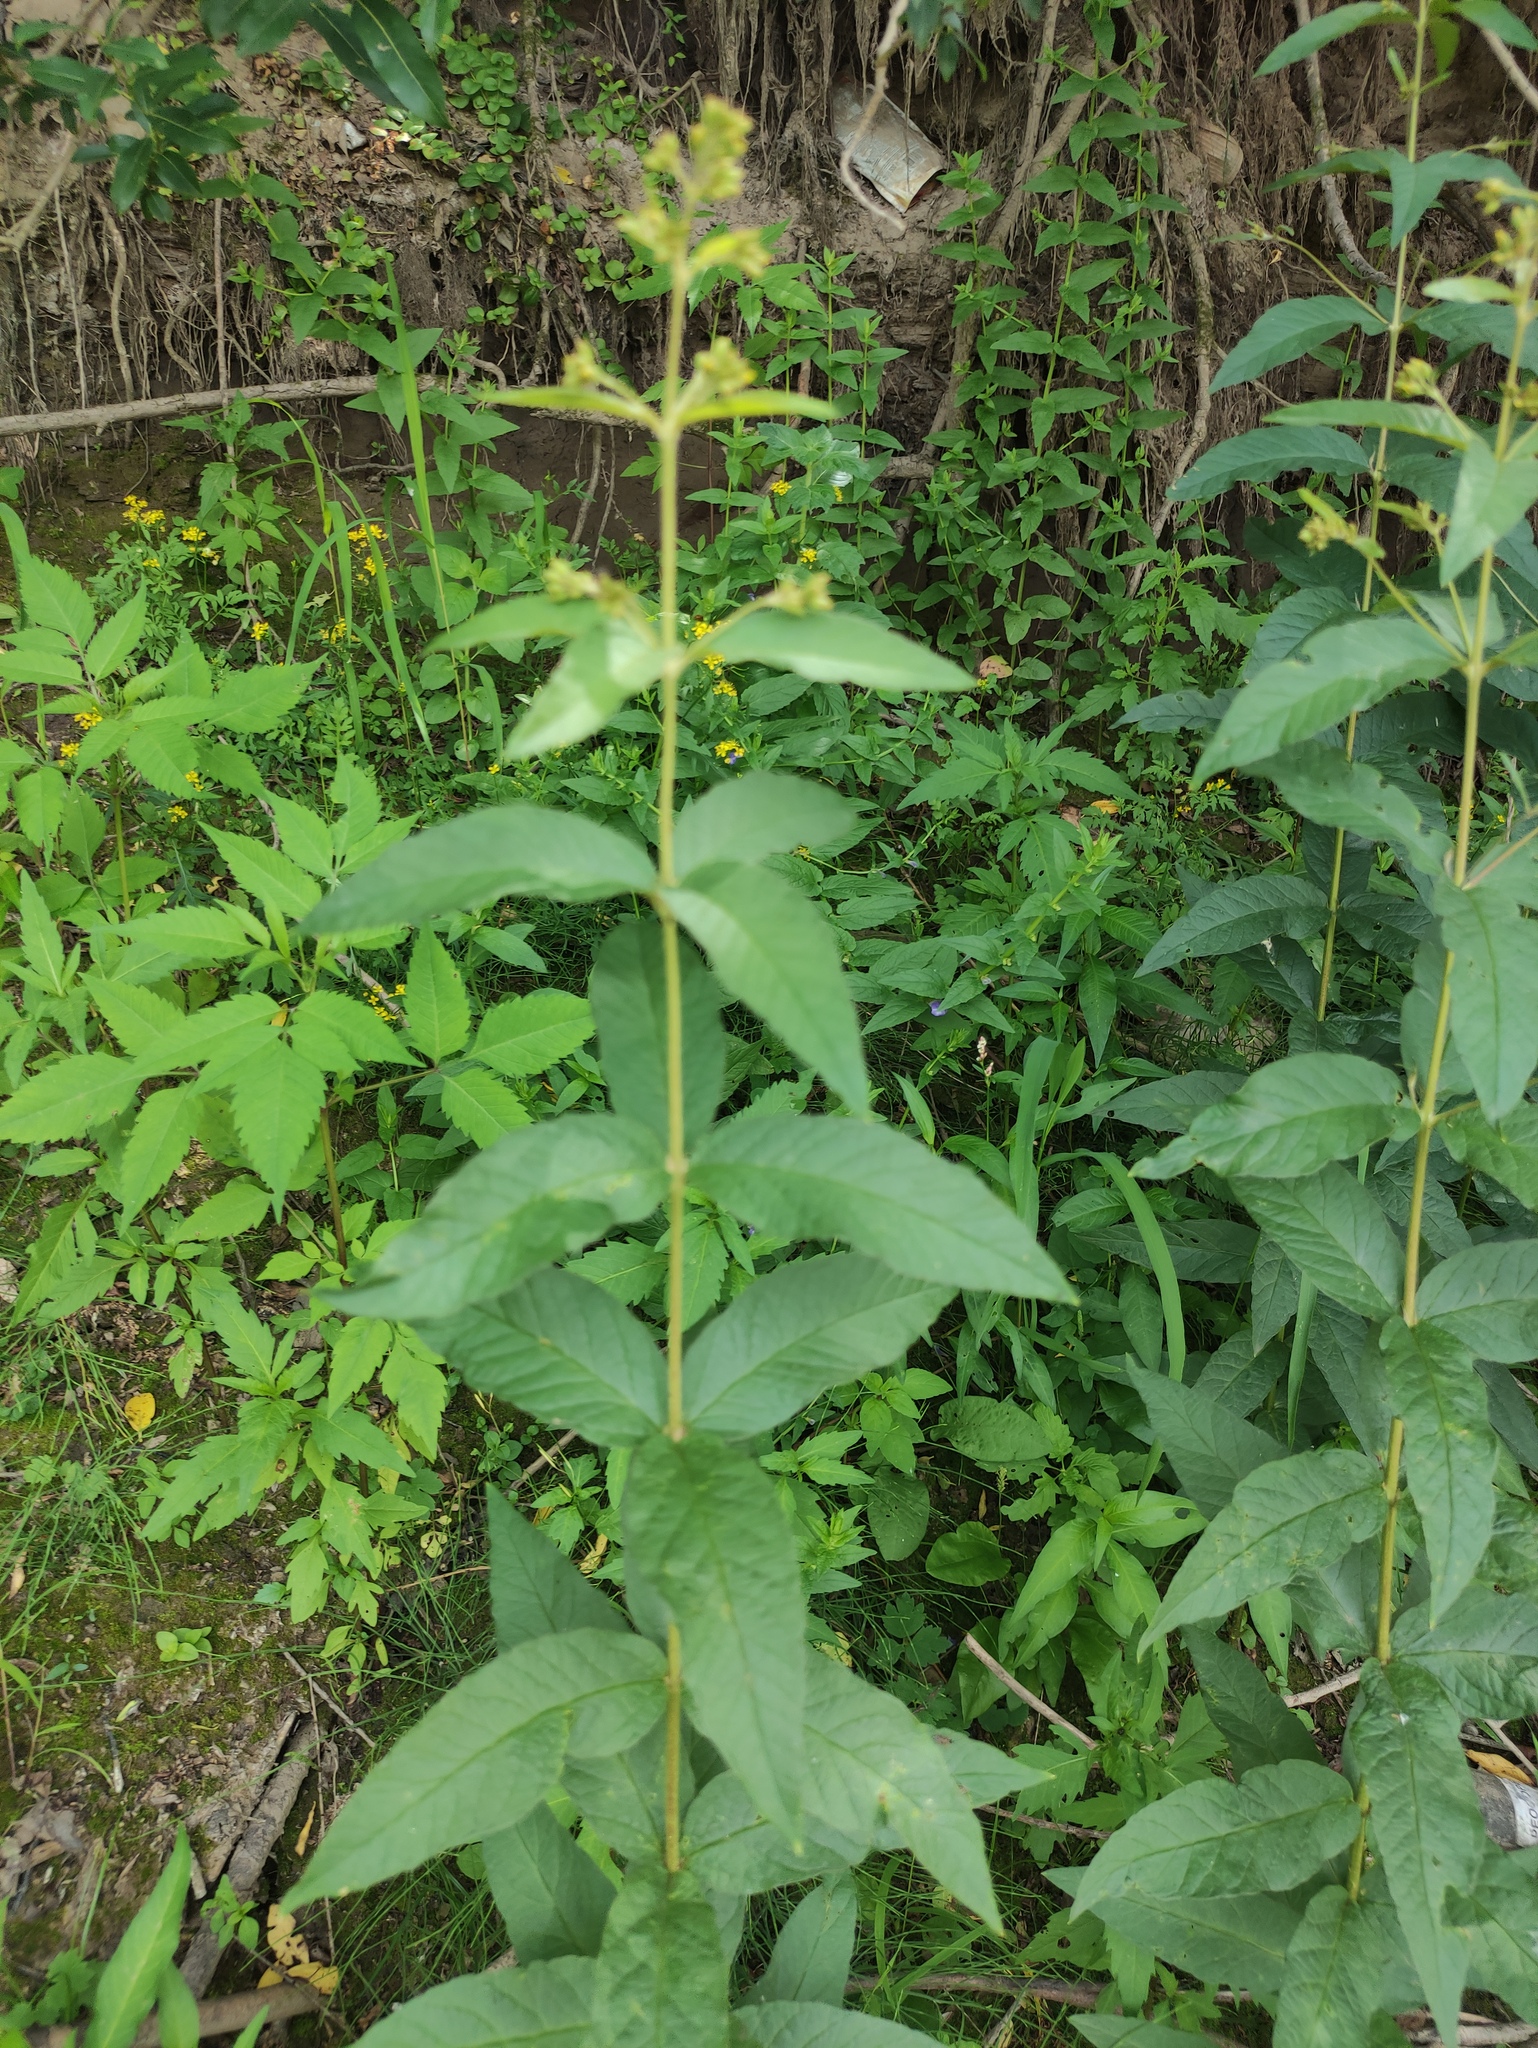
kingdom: Plantae
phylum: Tracheophyta
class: Magnoliopsida
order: Ericales
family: Primulaceae
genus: Lysimachia
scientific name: Lysimachia vulgaris
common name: Yellow loosestrife
